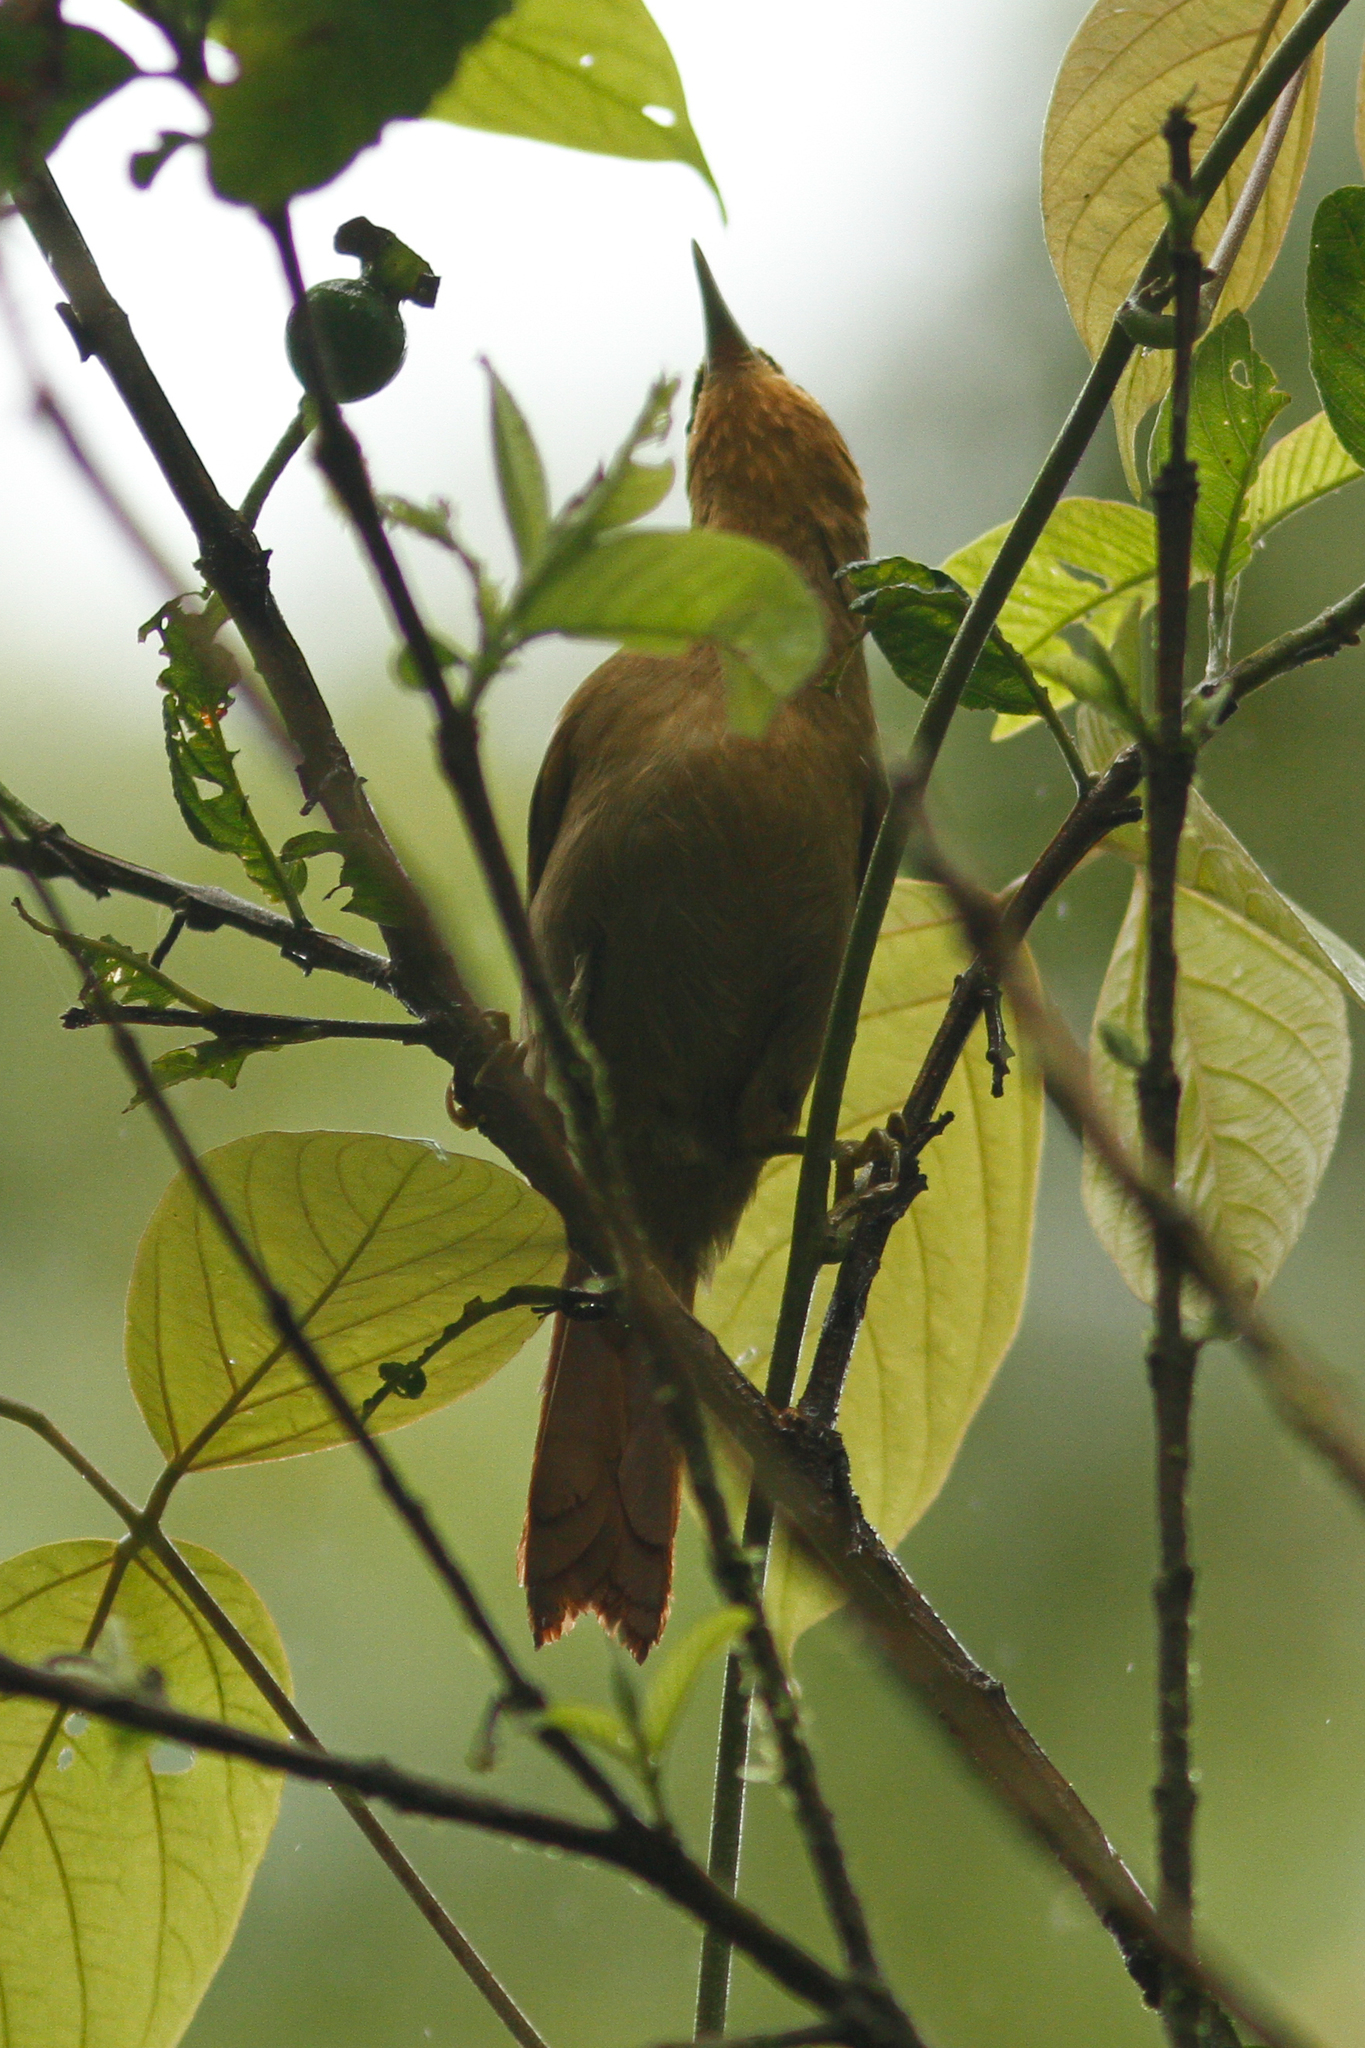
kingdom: Animalia
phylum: Chordata
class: Aves
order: Passeriformes
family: Furnariidae
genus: Philydor
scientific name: Philydor rufum
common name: Buff-fronted foliage-gleaner
